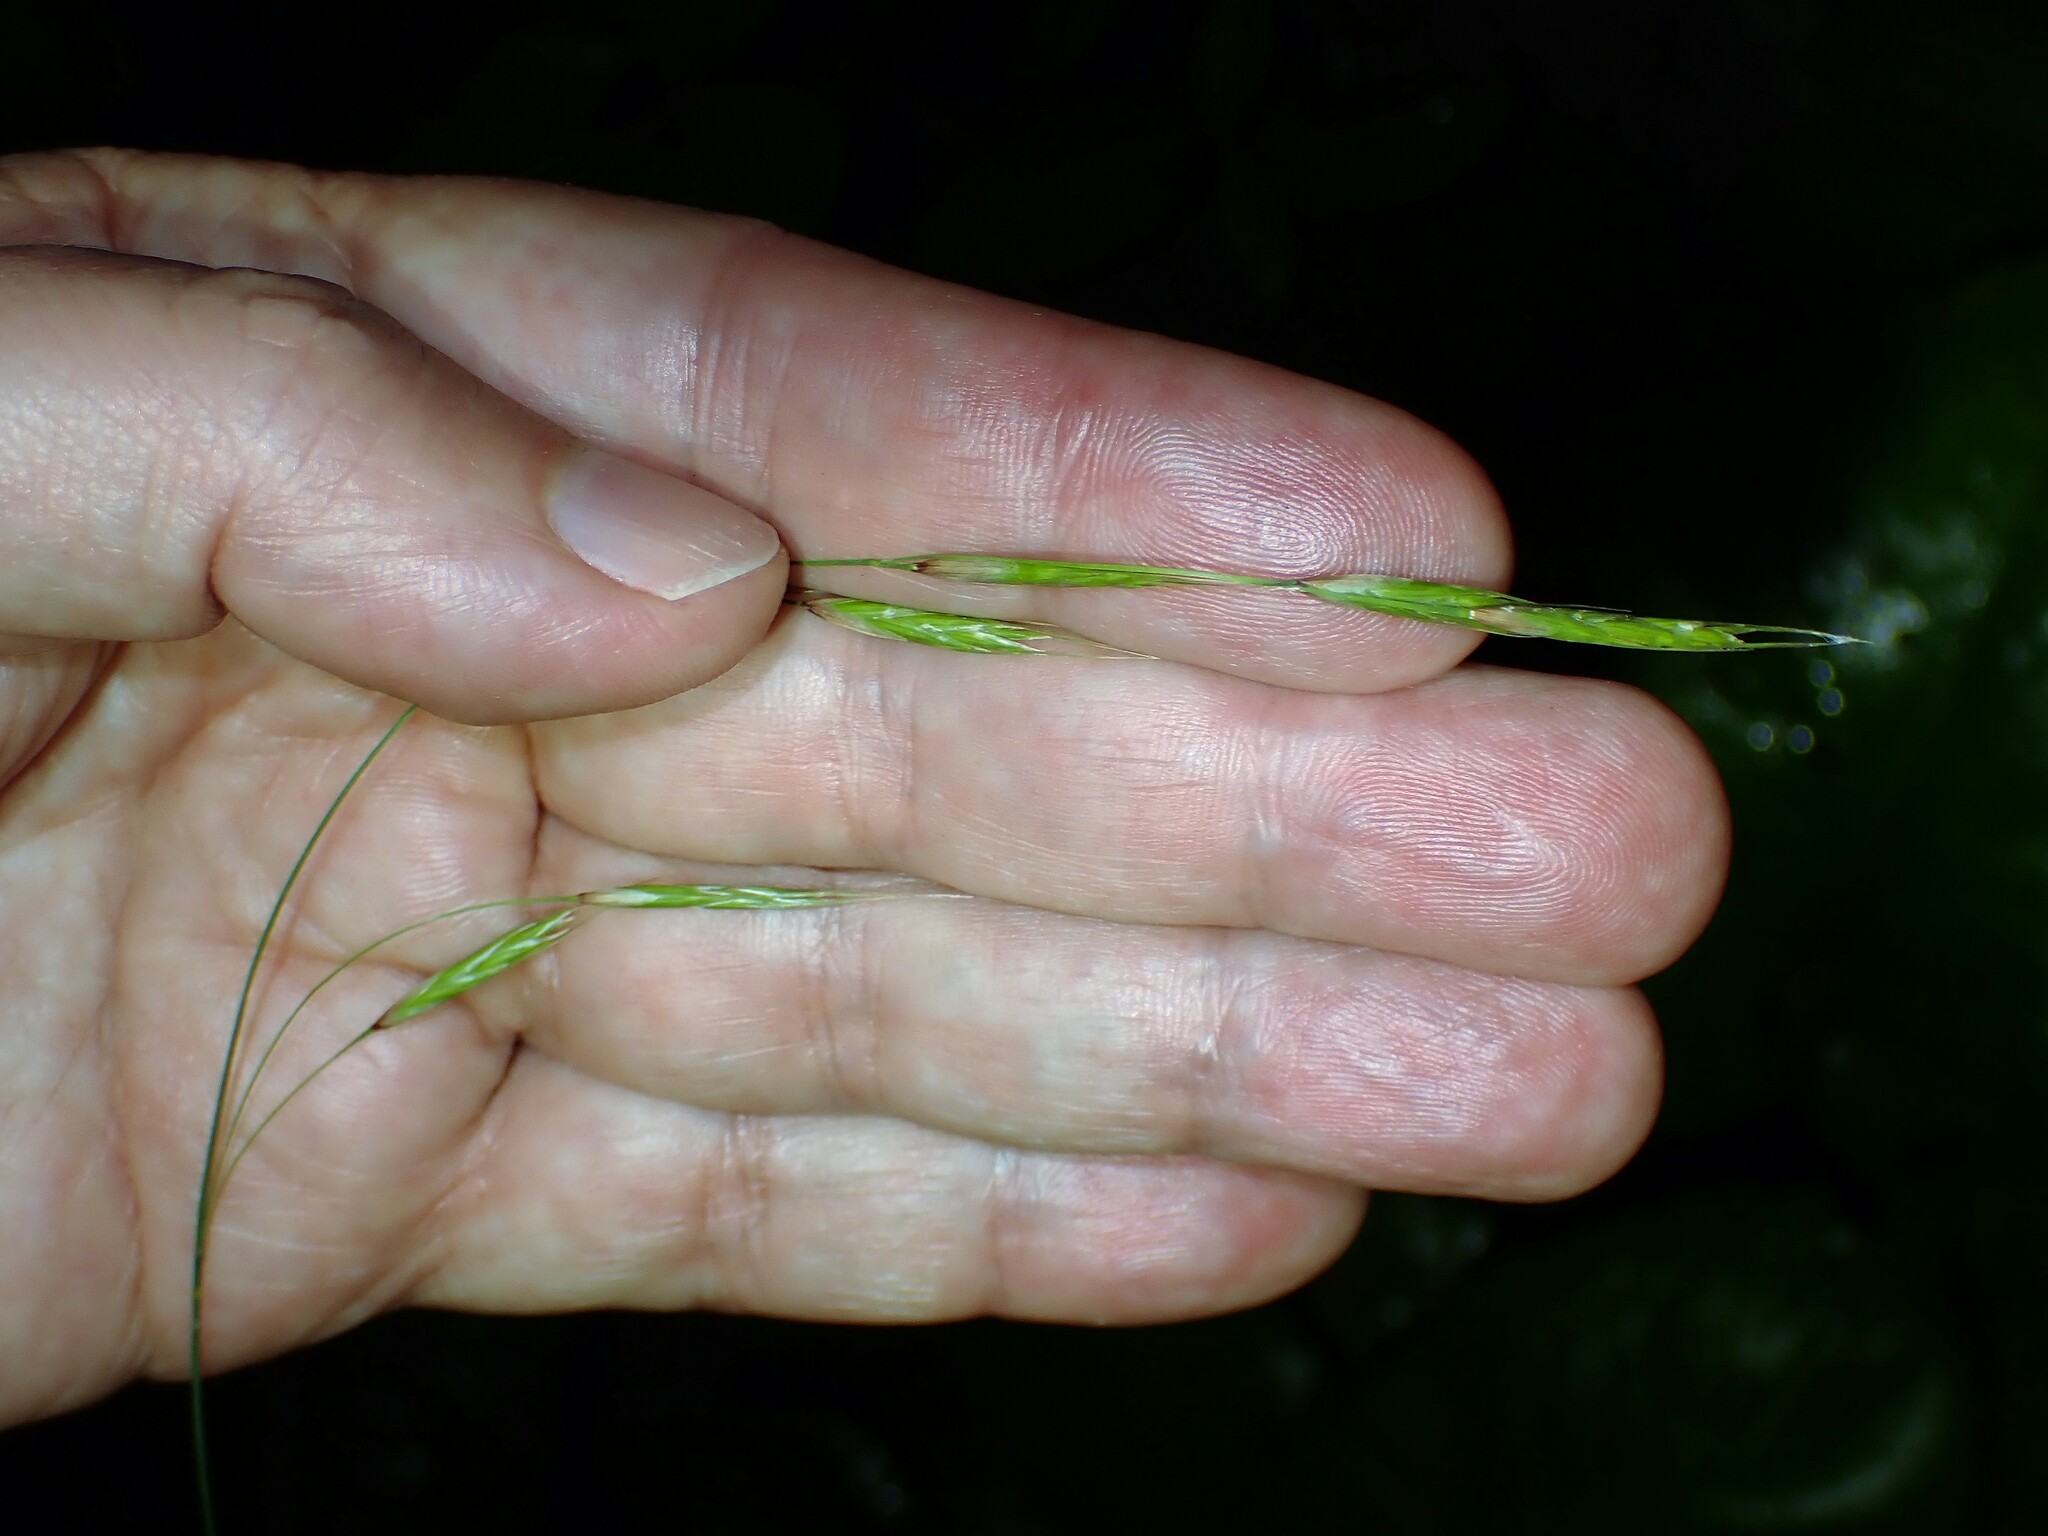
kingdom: Plantae
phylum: Tracheophyta
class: Liliopsida
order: Poales
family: Poaceae
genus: Schizachne
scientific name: Schizachne purpurascens
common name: False melic
